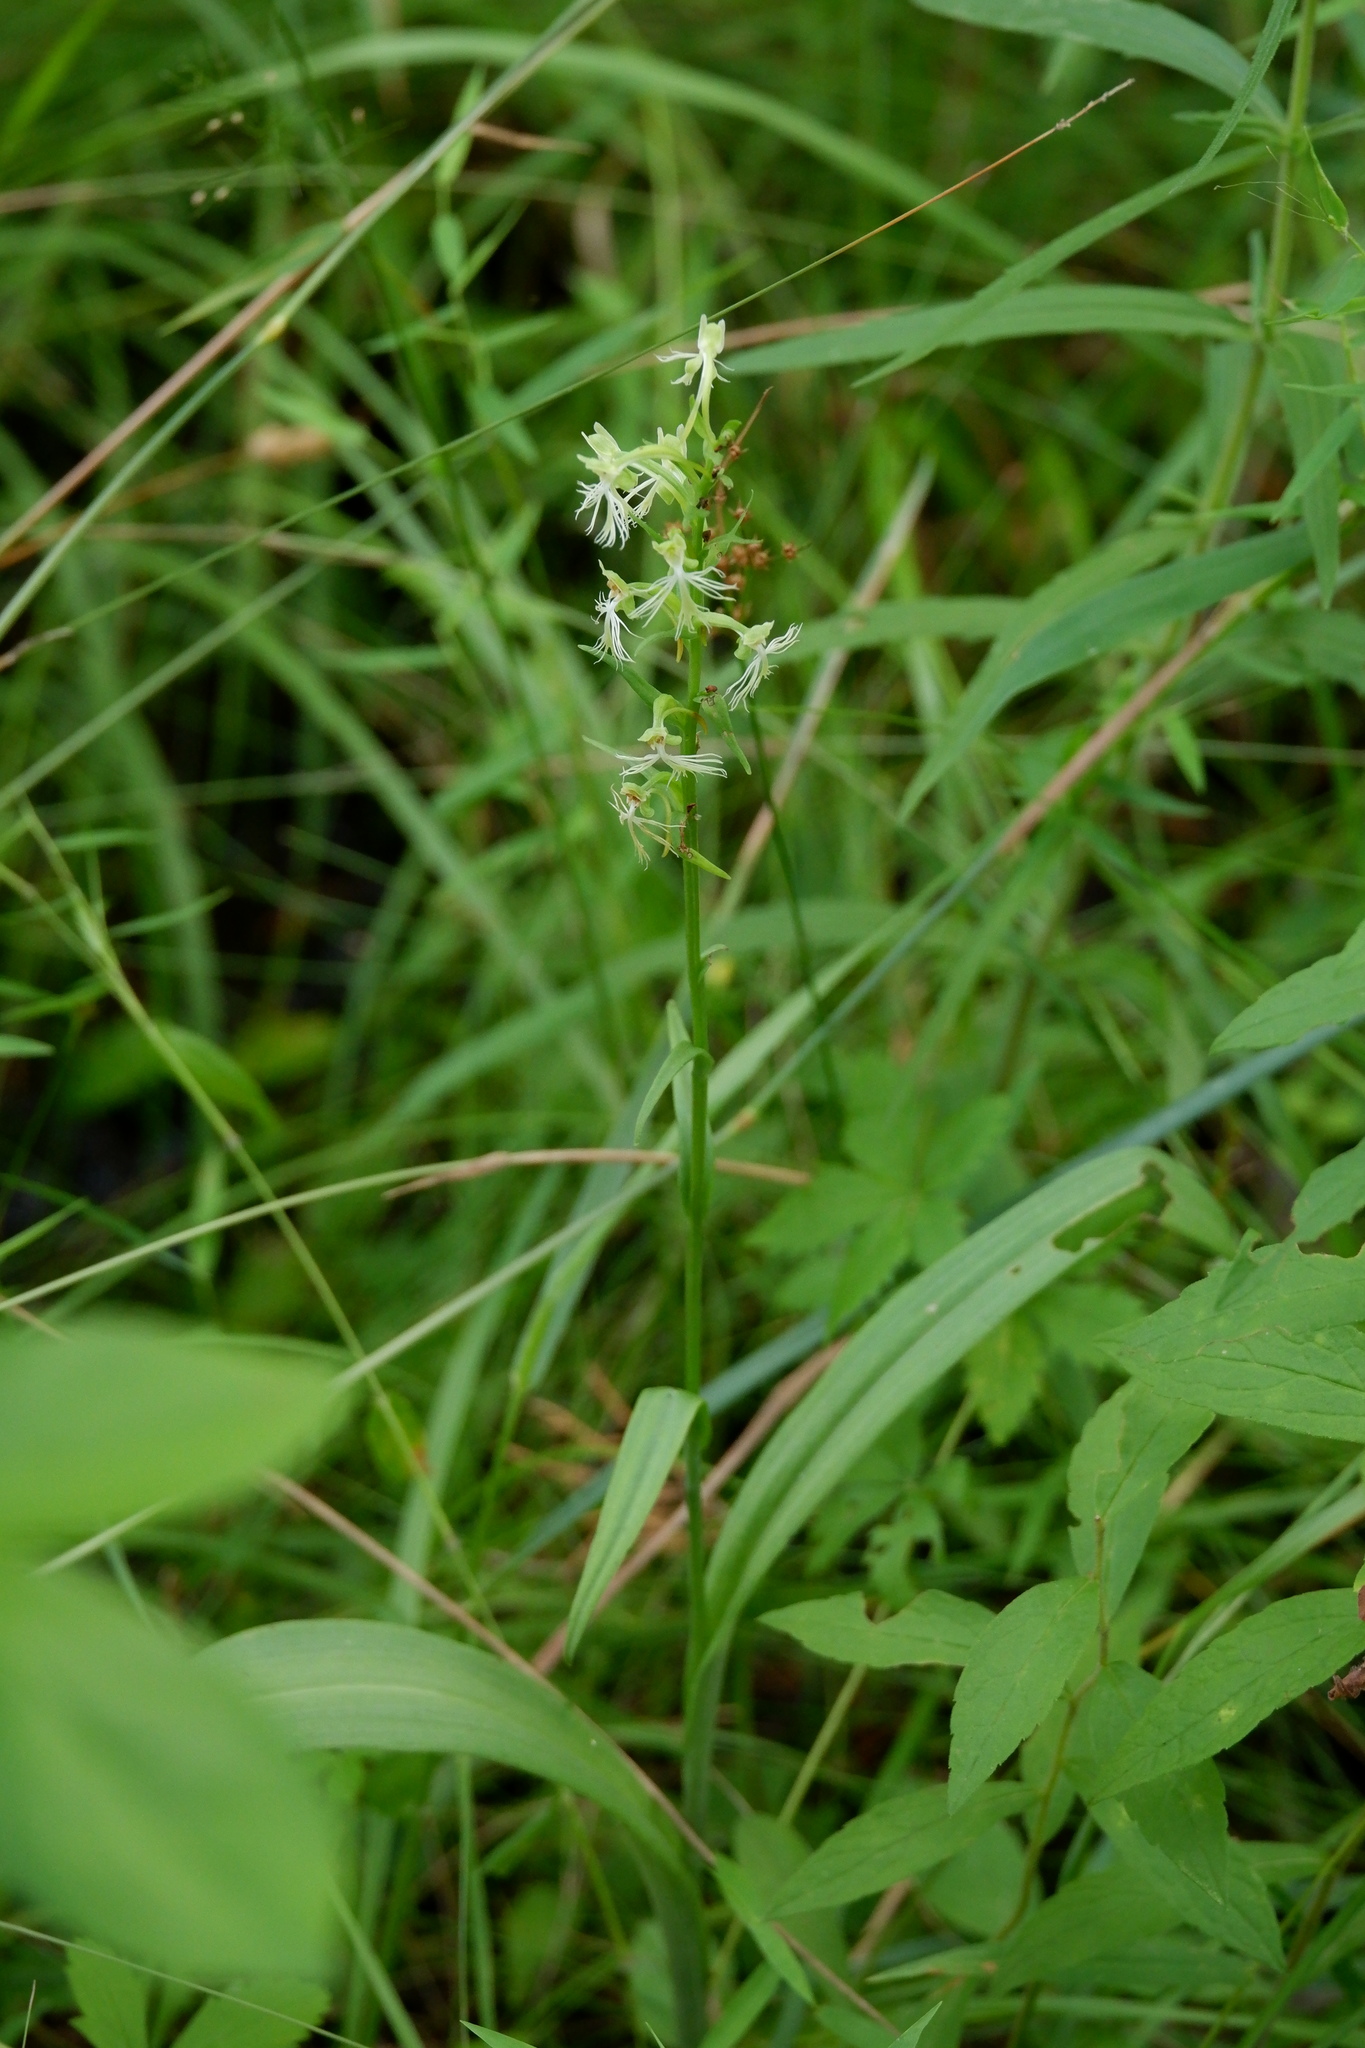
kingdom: Plantae
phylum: Tracheophyta
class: Liliopsida
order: Asparagales
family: Orchidaceae
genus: Platanthera
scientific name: Platanthera lacera
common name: Green fringed orchid
